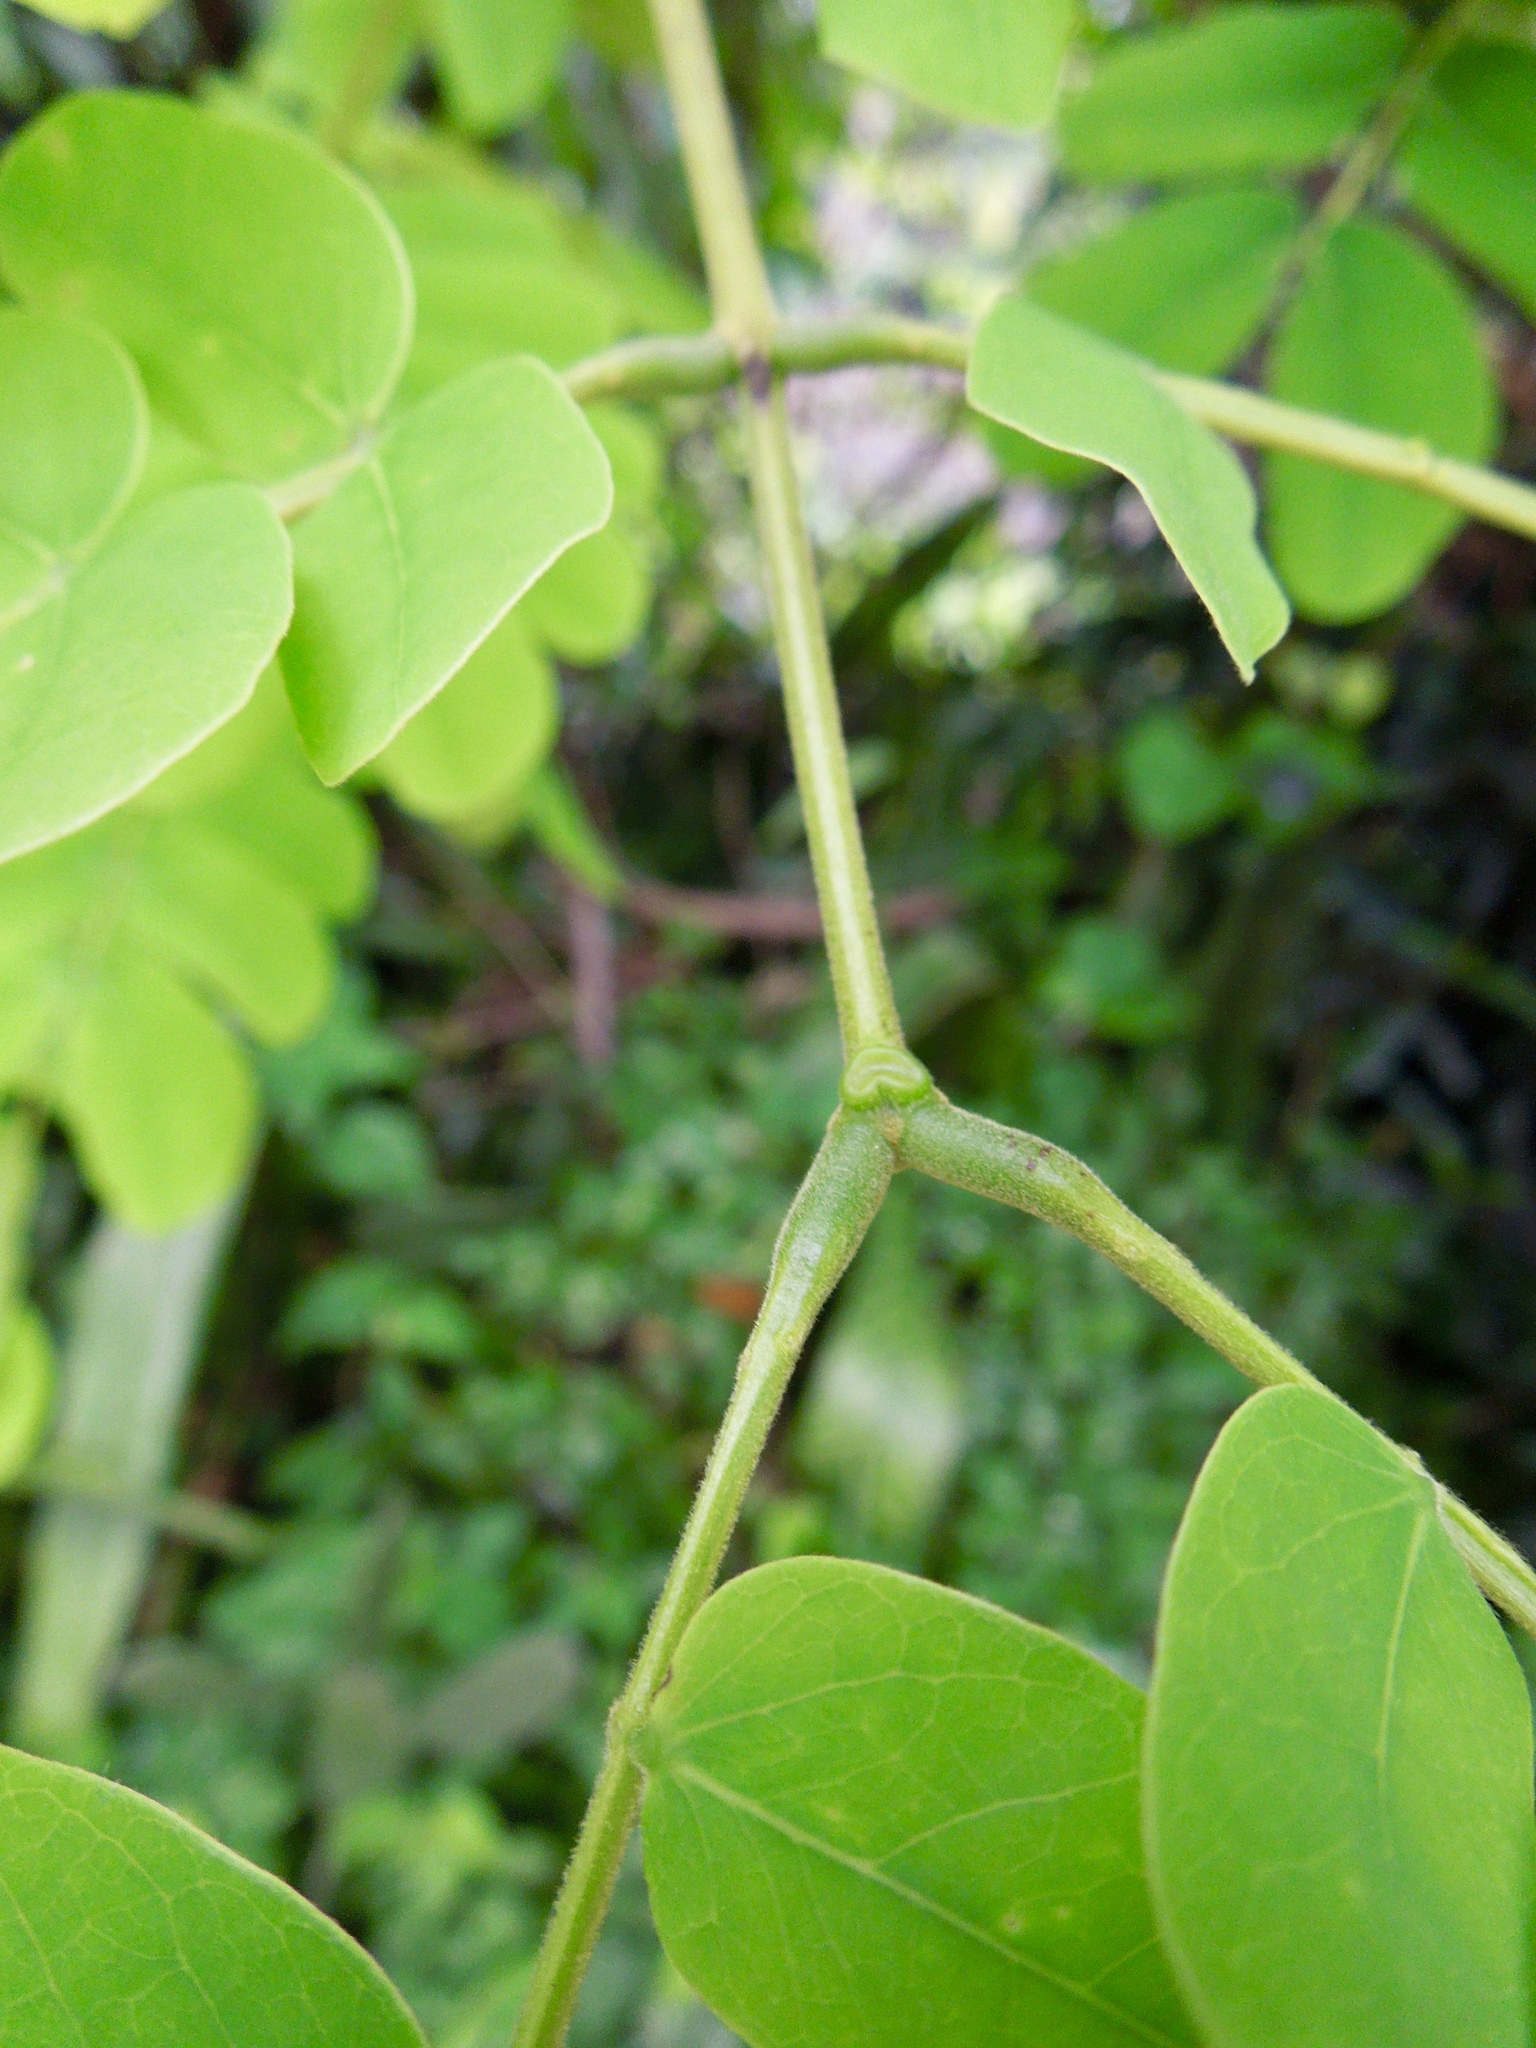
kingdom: Plantae
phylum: Tracheophyta
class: Magnoliopsida
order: Fabales
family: Fabaceae
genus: Albizia
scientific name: Albizia lebbeck
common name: Woman's tongue
